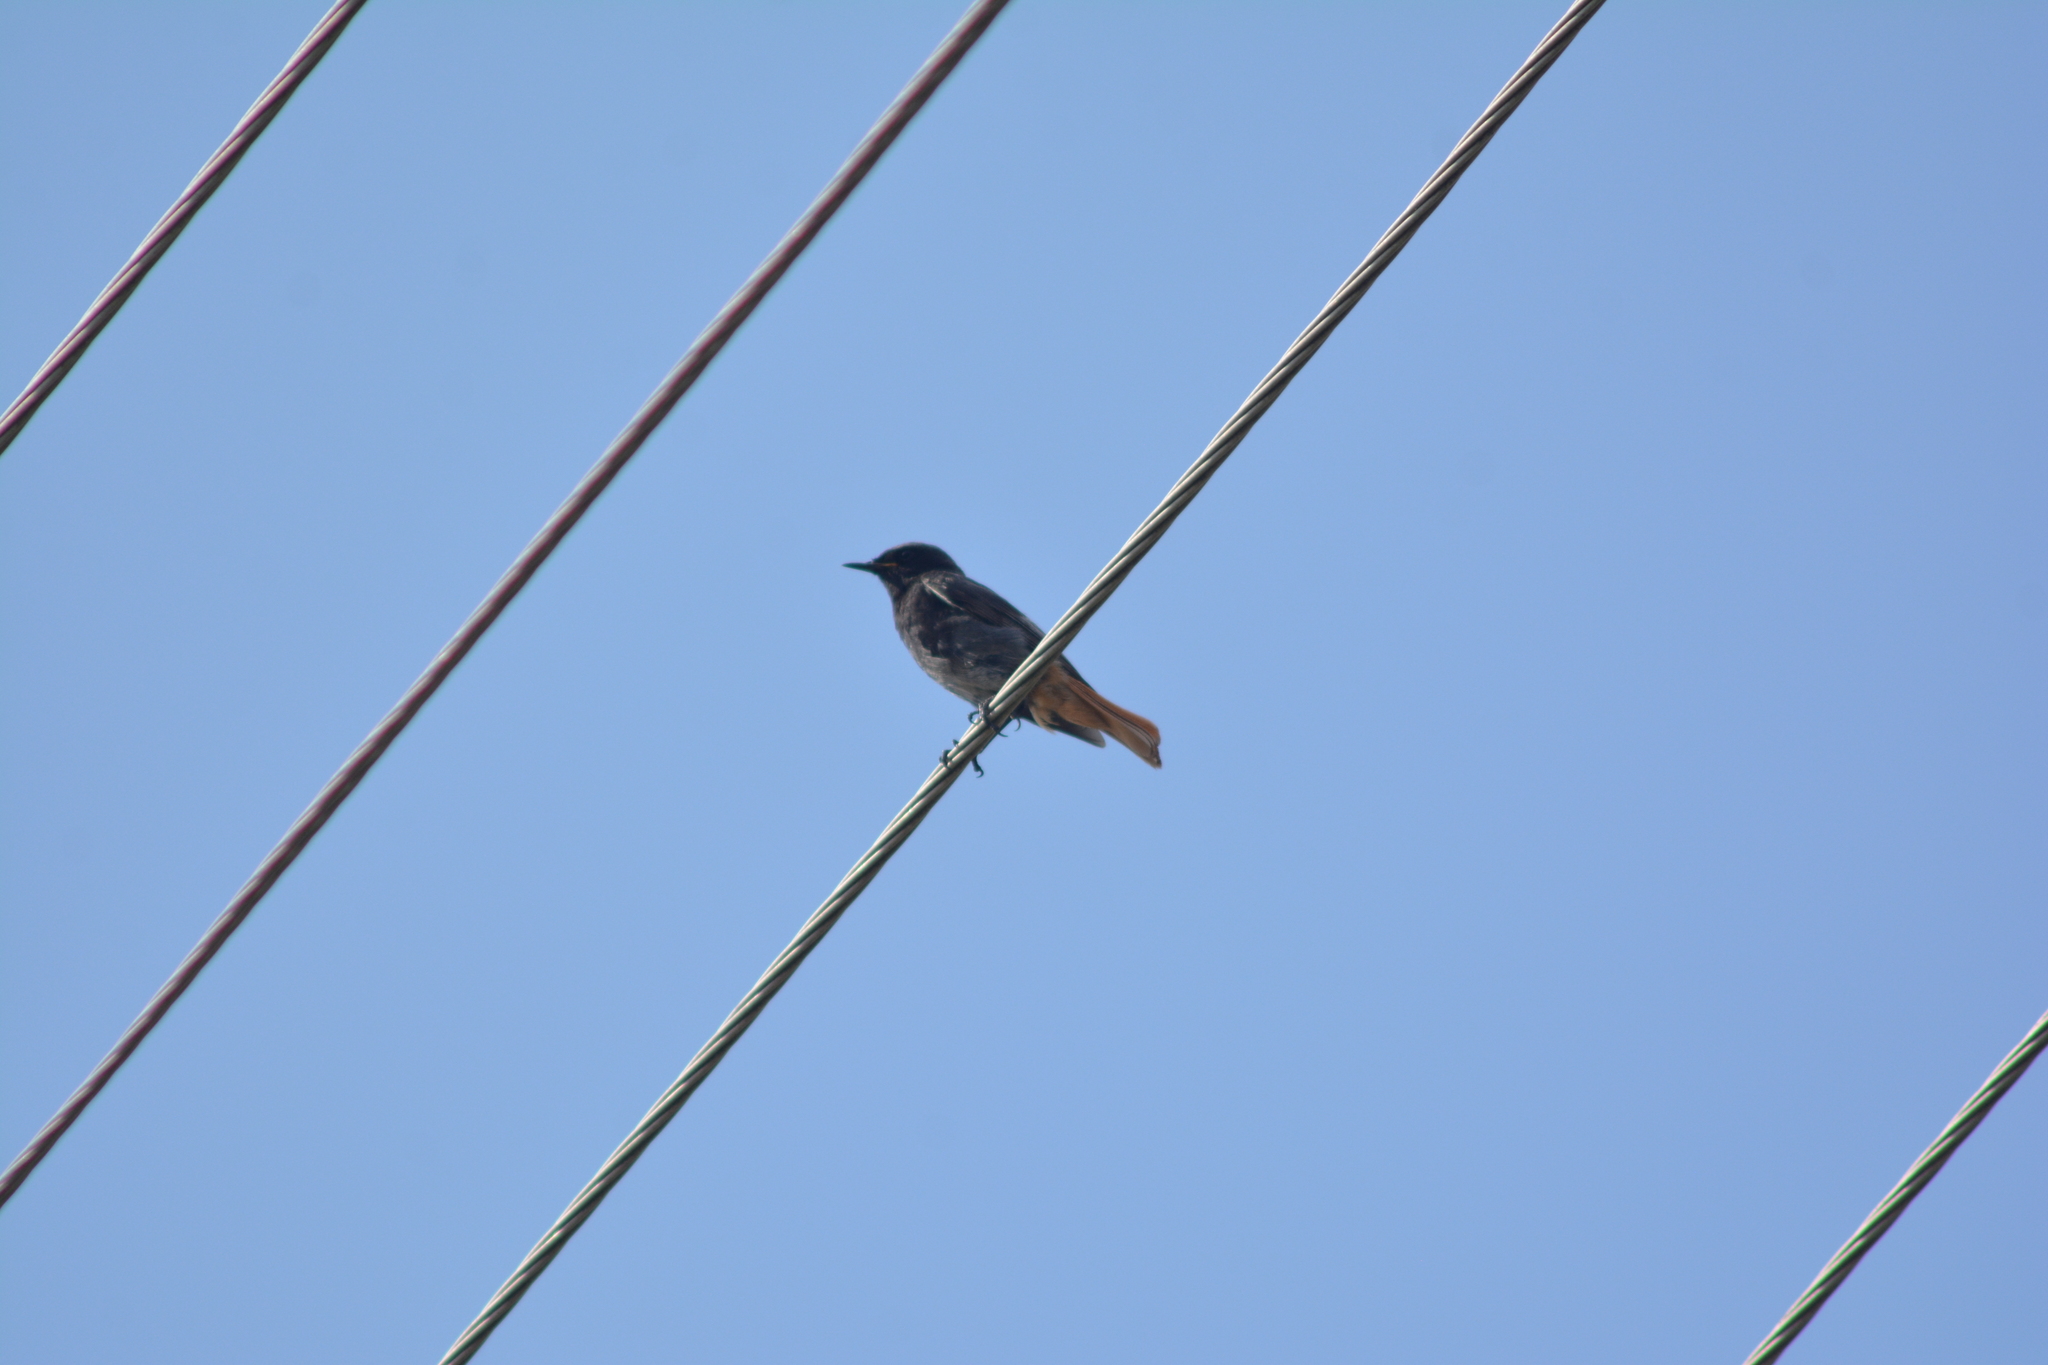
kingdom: Animalia
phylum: Chordata
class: Aves
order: Passeriformes
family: Muscicapidae
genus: Phoenicurus
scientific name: Phoenicurus ochruros
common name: Black redstart
